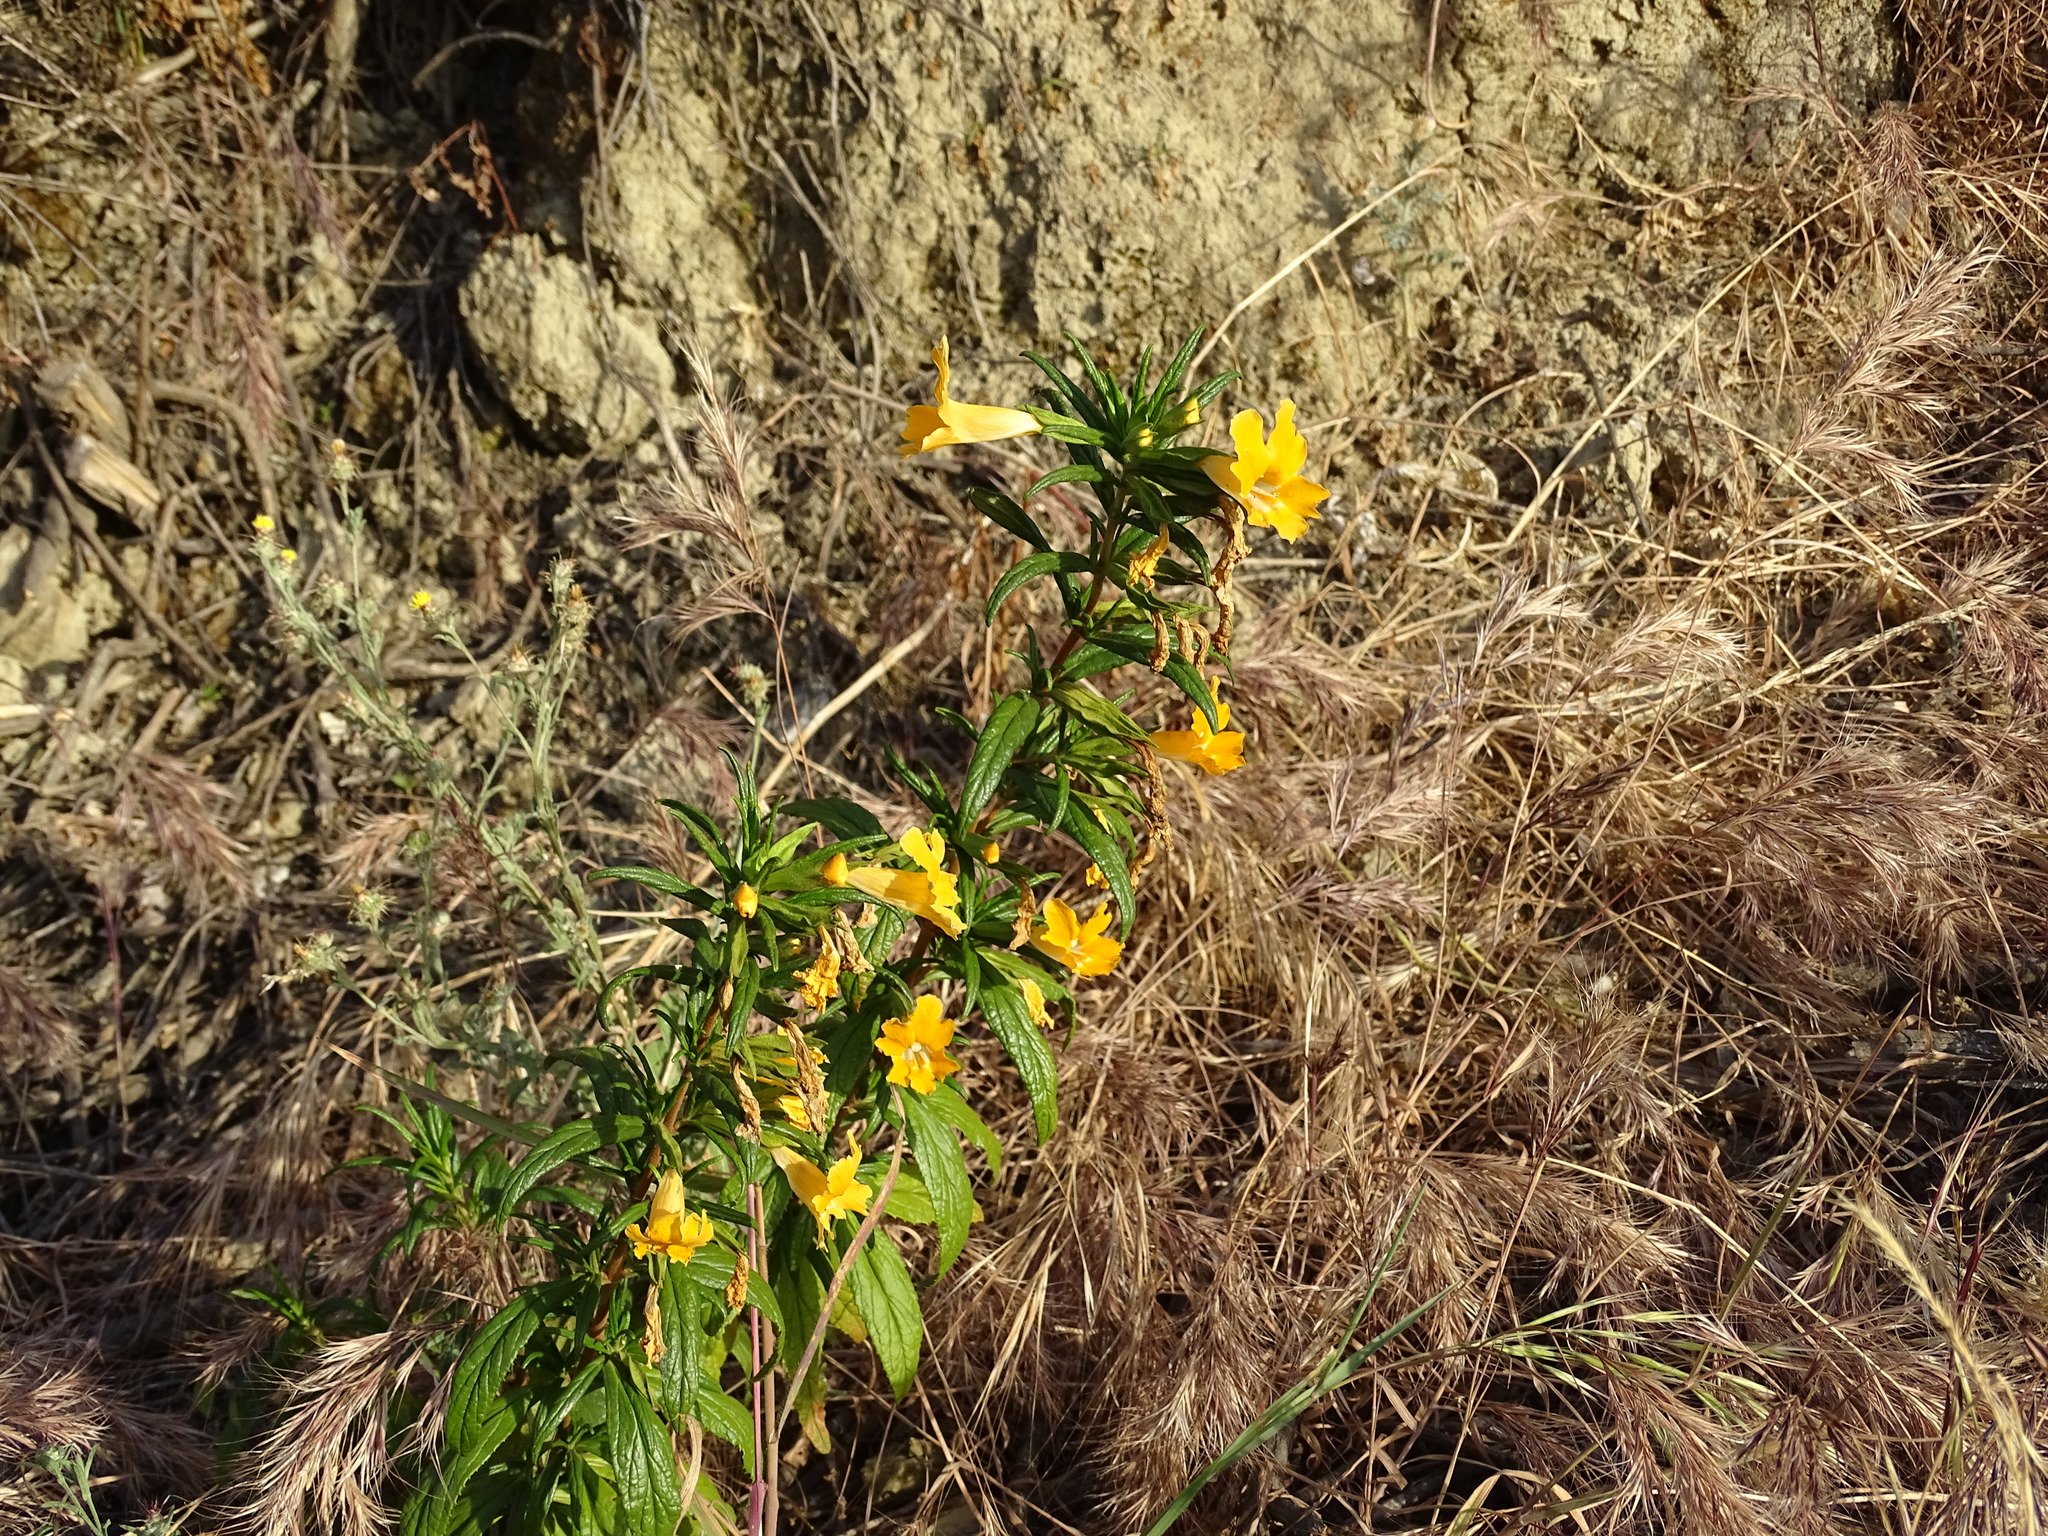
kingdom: Plantae
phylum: Tracheophyta
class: Magnoliopsida
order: Lamiales
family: Phrymaceae
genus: Diplacus
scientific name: Diplacus australis
